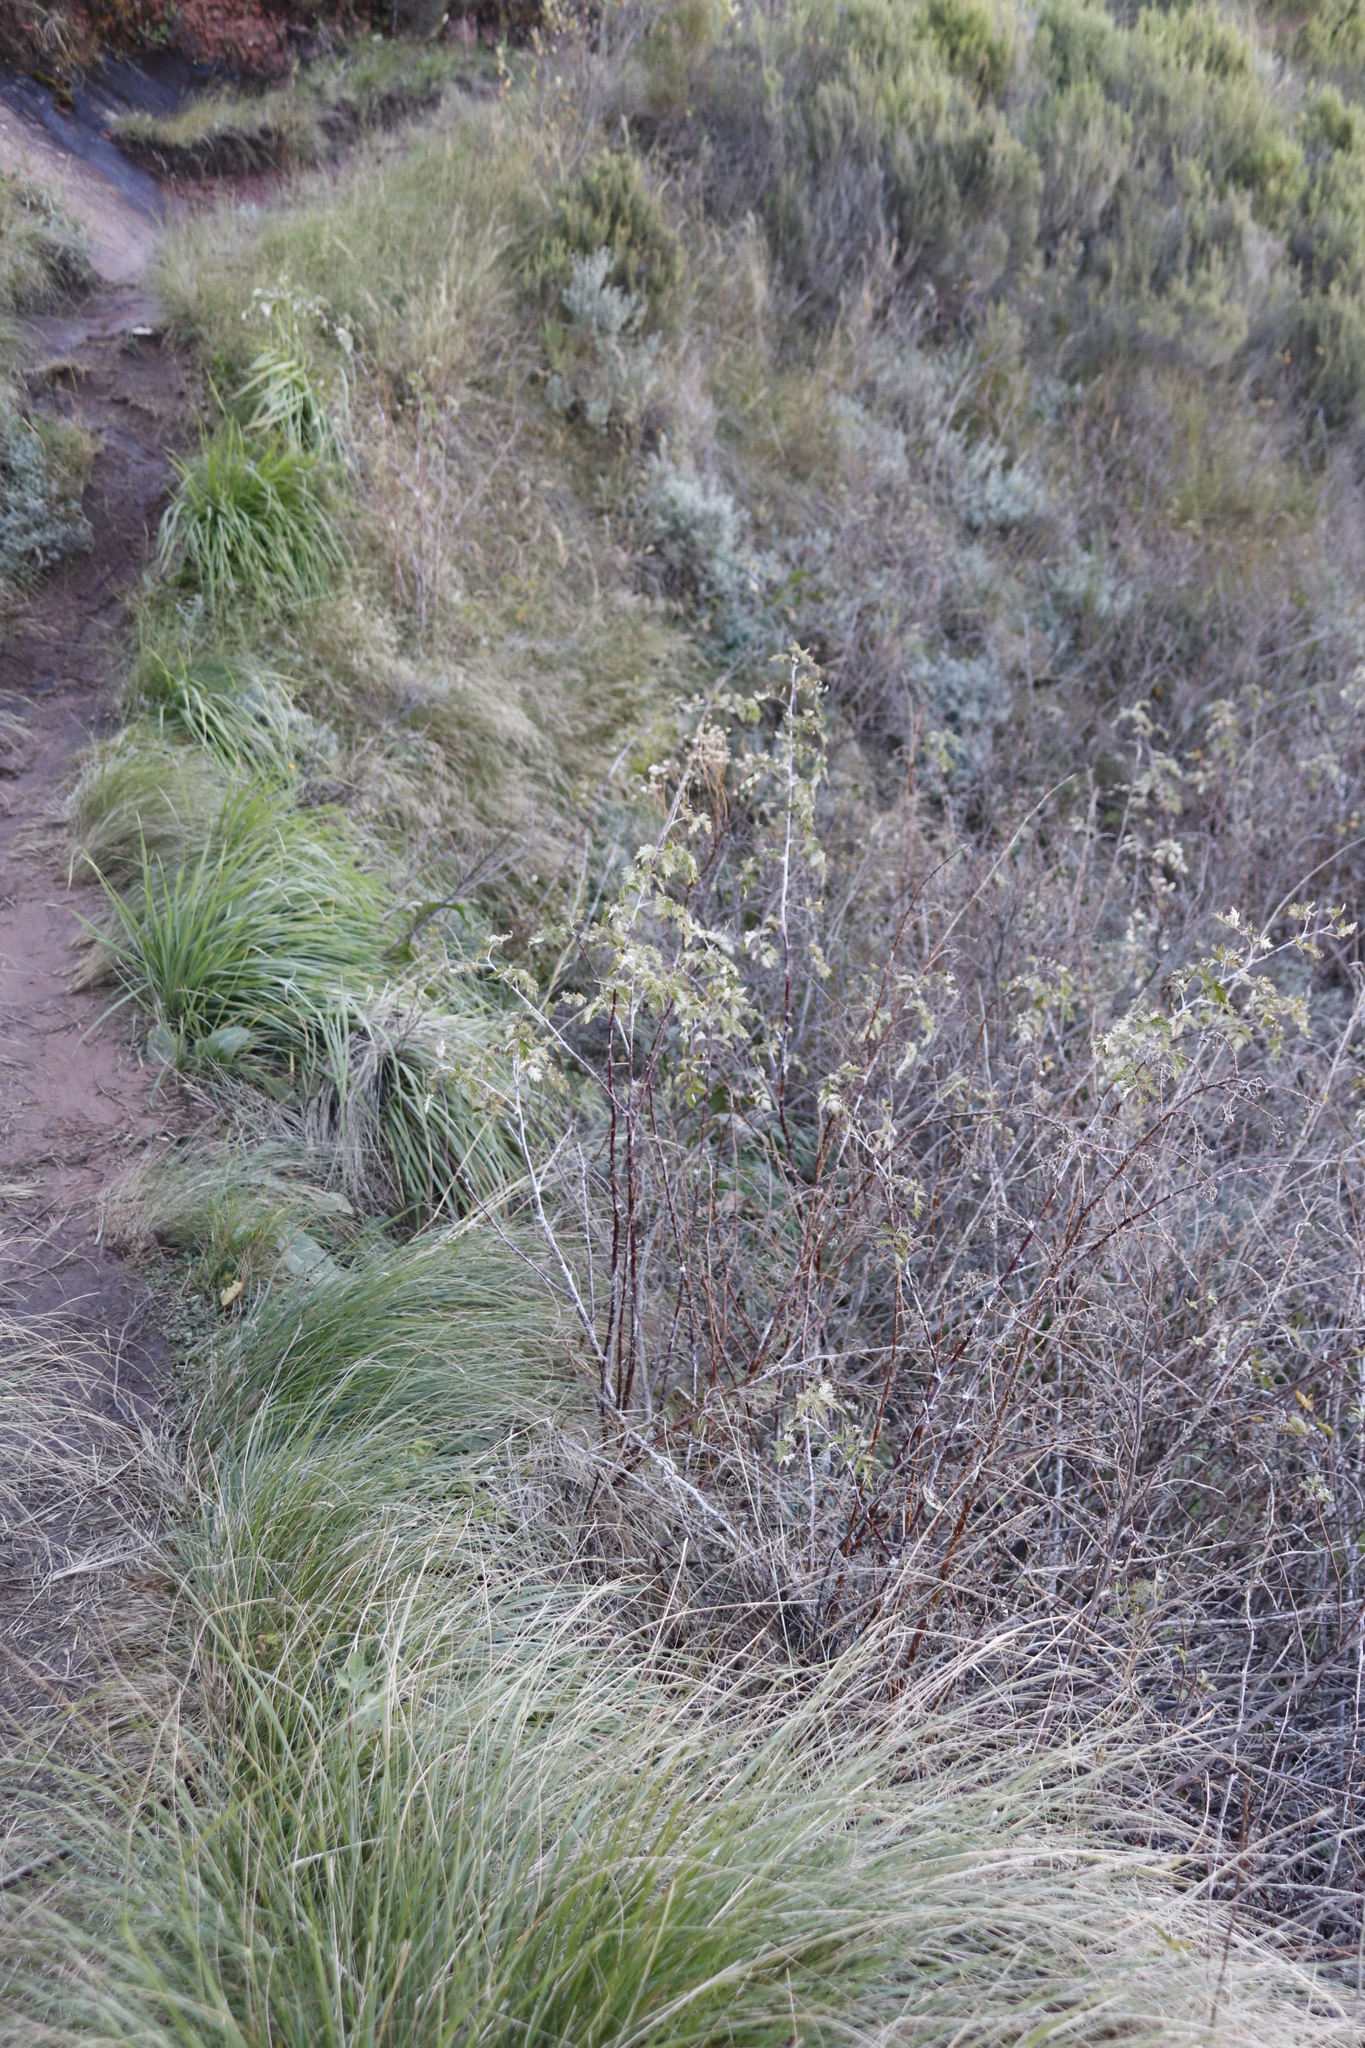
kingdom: Plantae
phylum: Tracheophyta
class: Magnoliopsida
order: Rosales
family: Rosaceae
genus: Rubus
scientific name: Rubus ludwigii
